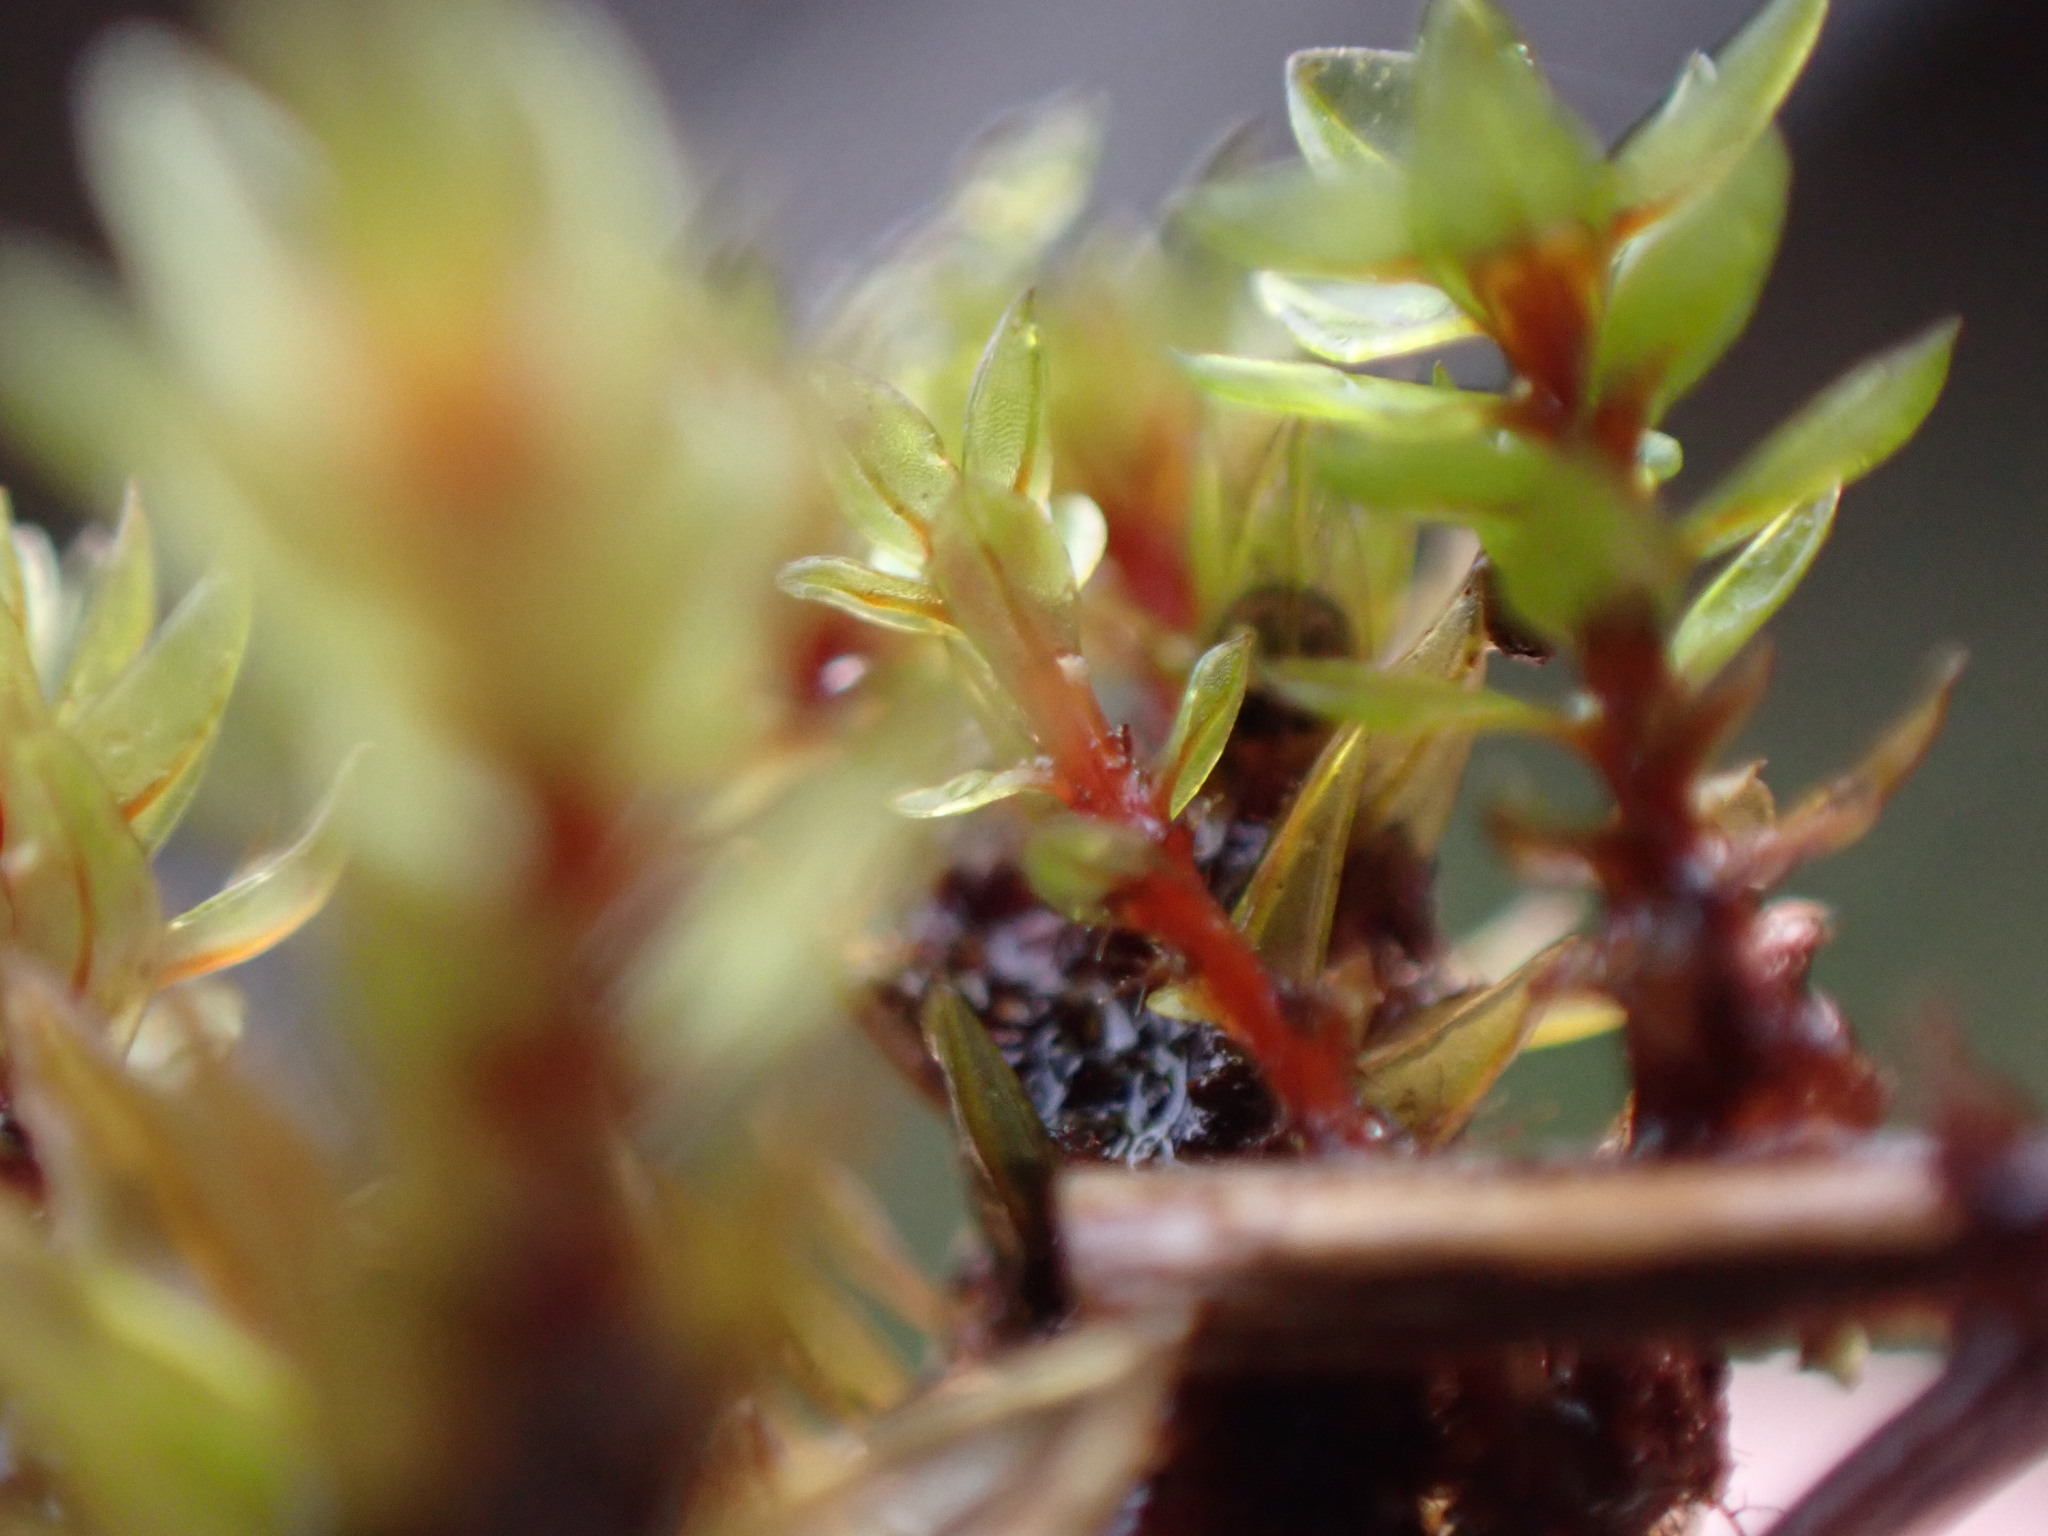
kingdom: Plantae
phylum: Bryophyta
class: Bryopsida
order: Bryales
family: Bryaceae
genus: Ptychostomum
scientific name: Ptychostomum pseudotriquetrum
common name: Long-leaved thread moss
